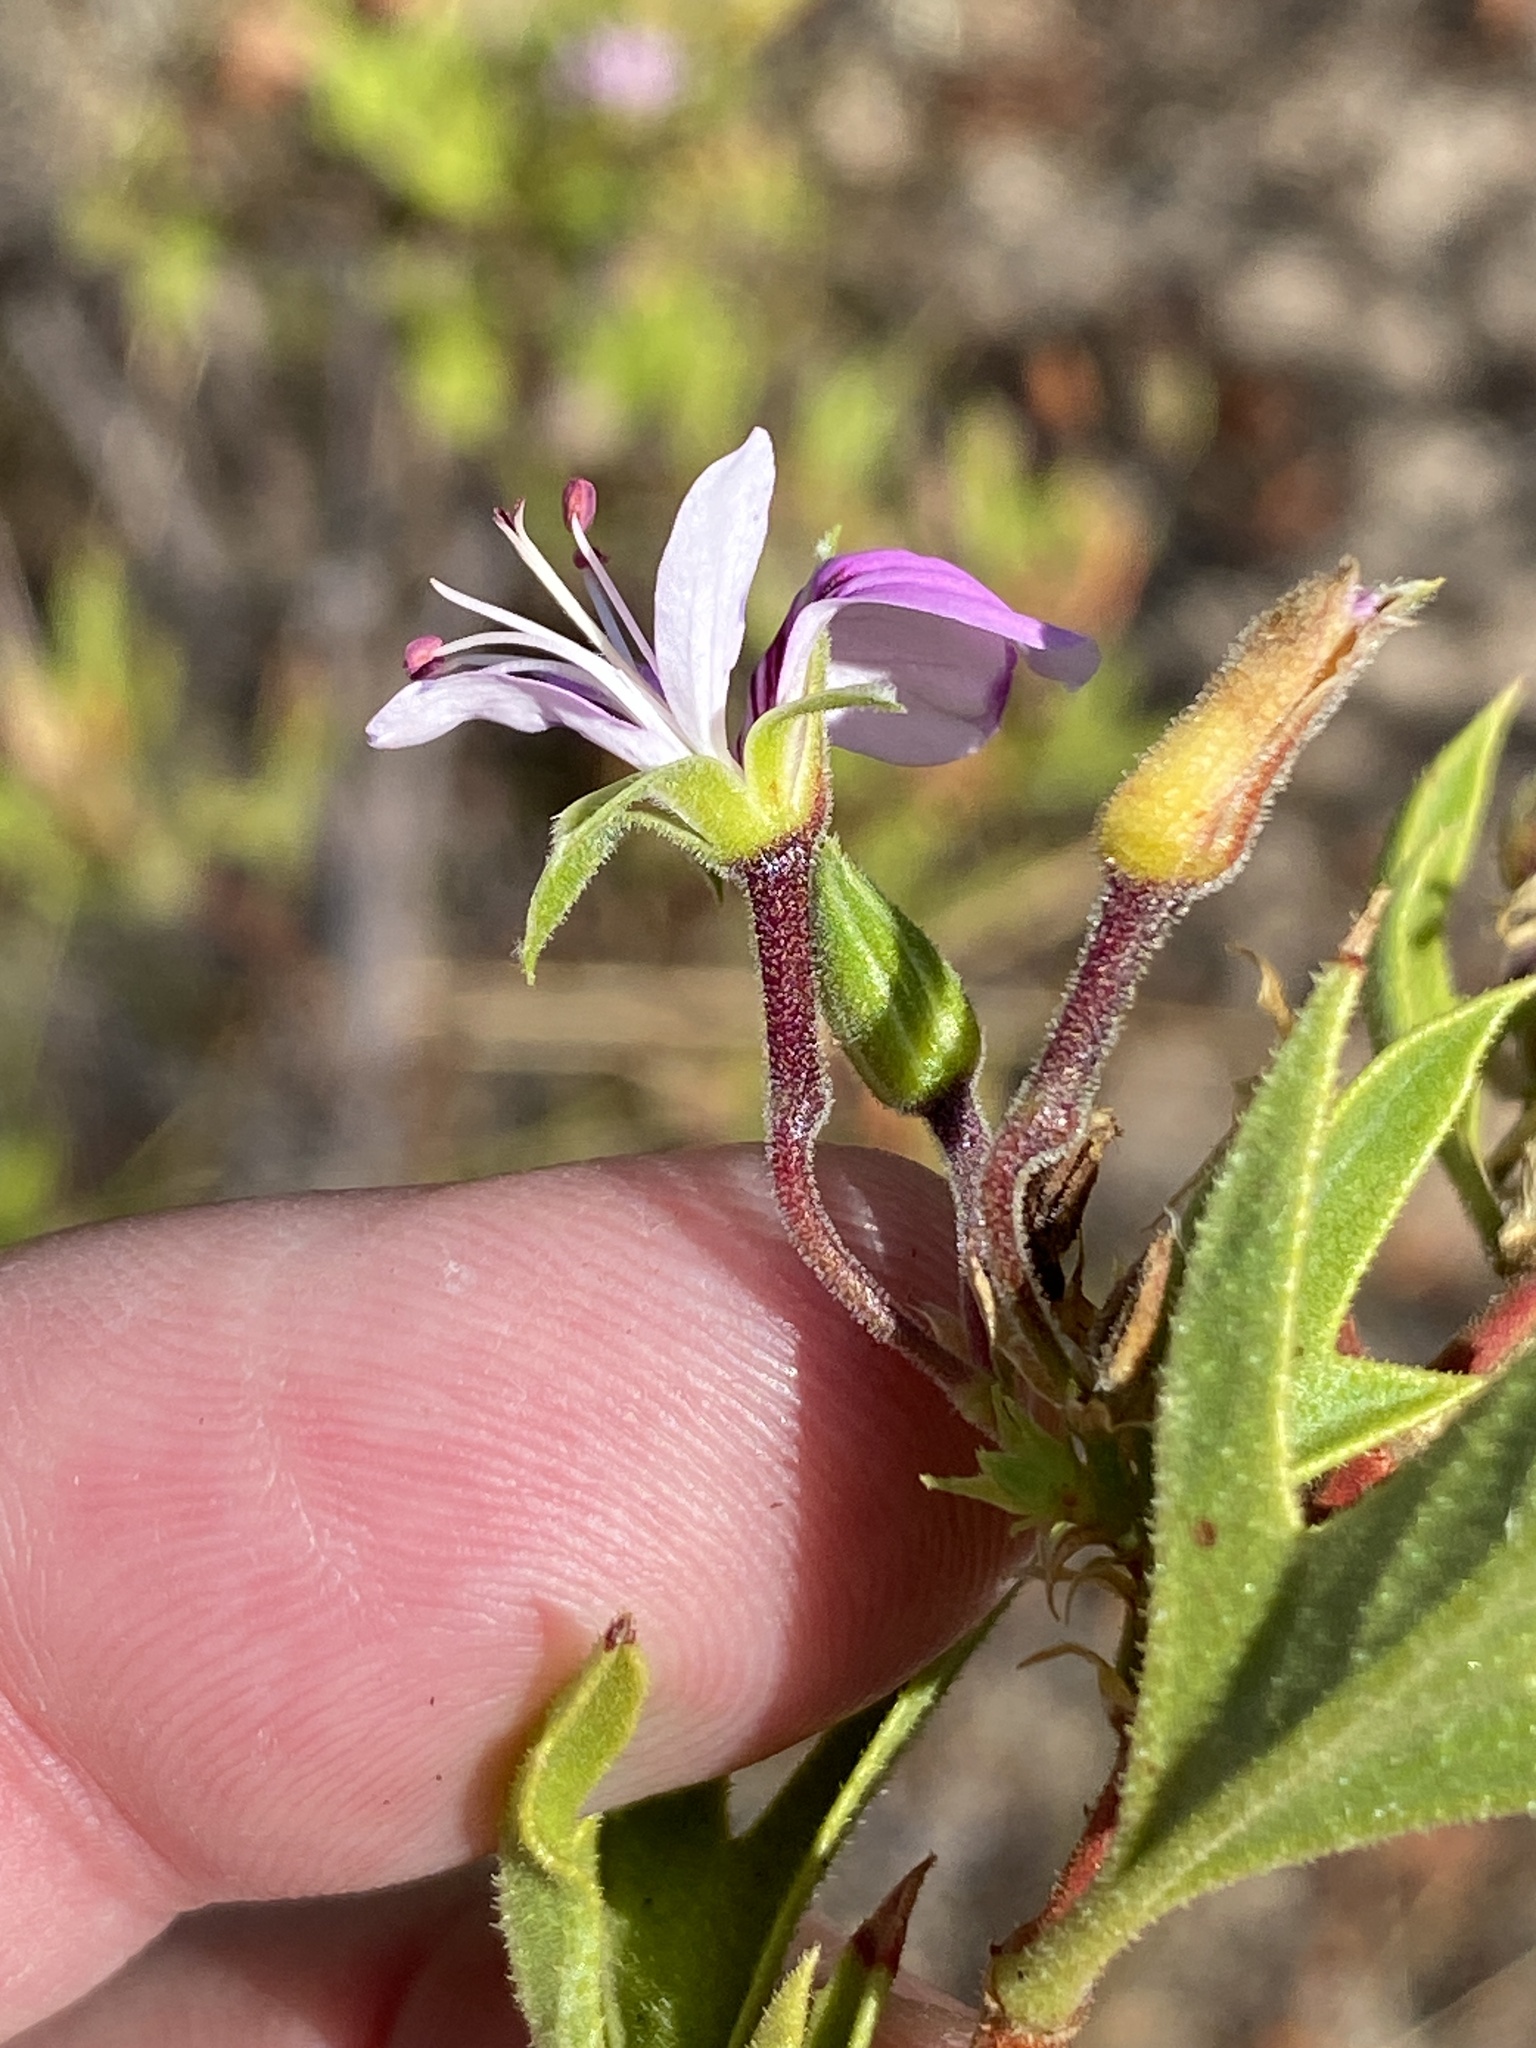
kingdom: Plantae
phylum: Tracheophyta
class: Magnoliopsida
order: Geraniales
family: Geraniaceae
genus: Pelargonium
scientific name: Pelargonium scabrum
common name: Apricot geranium
